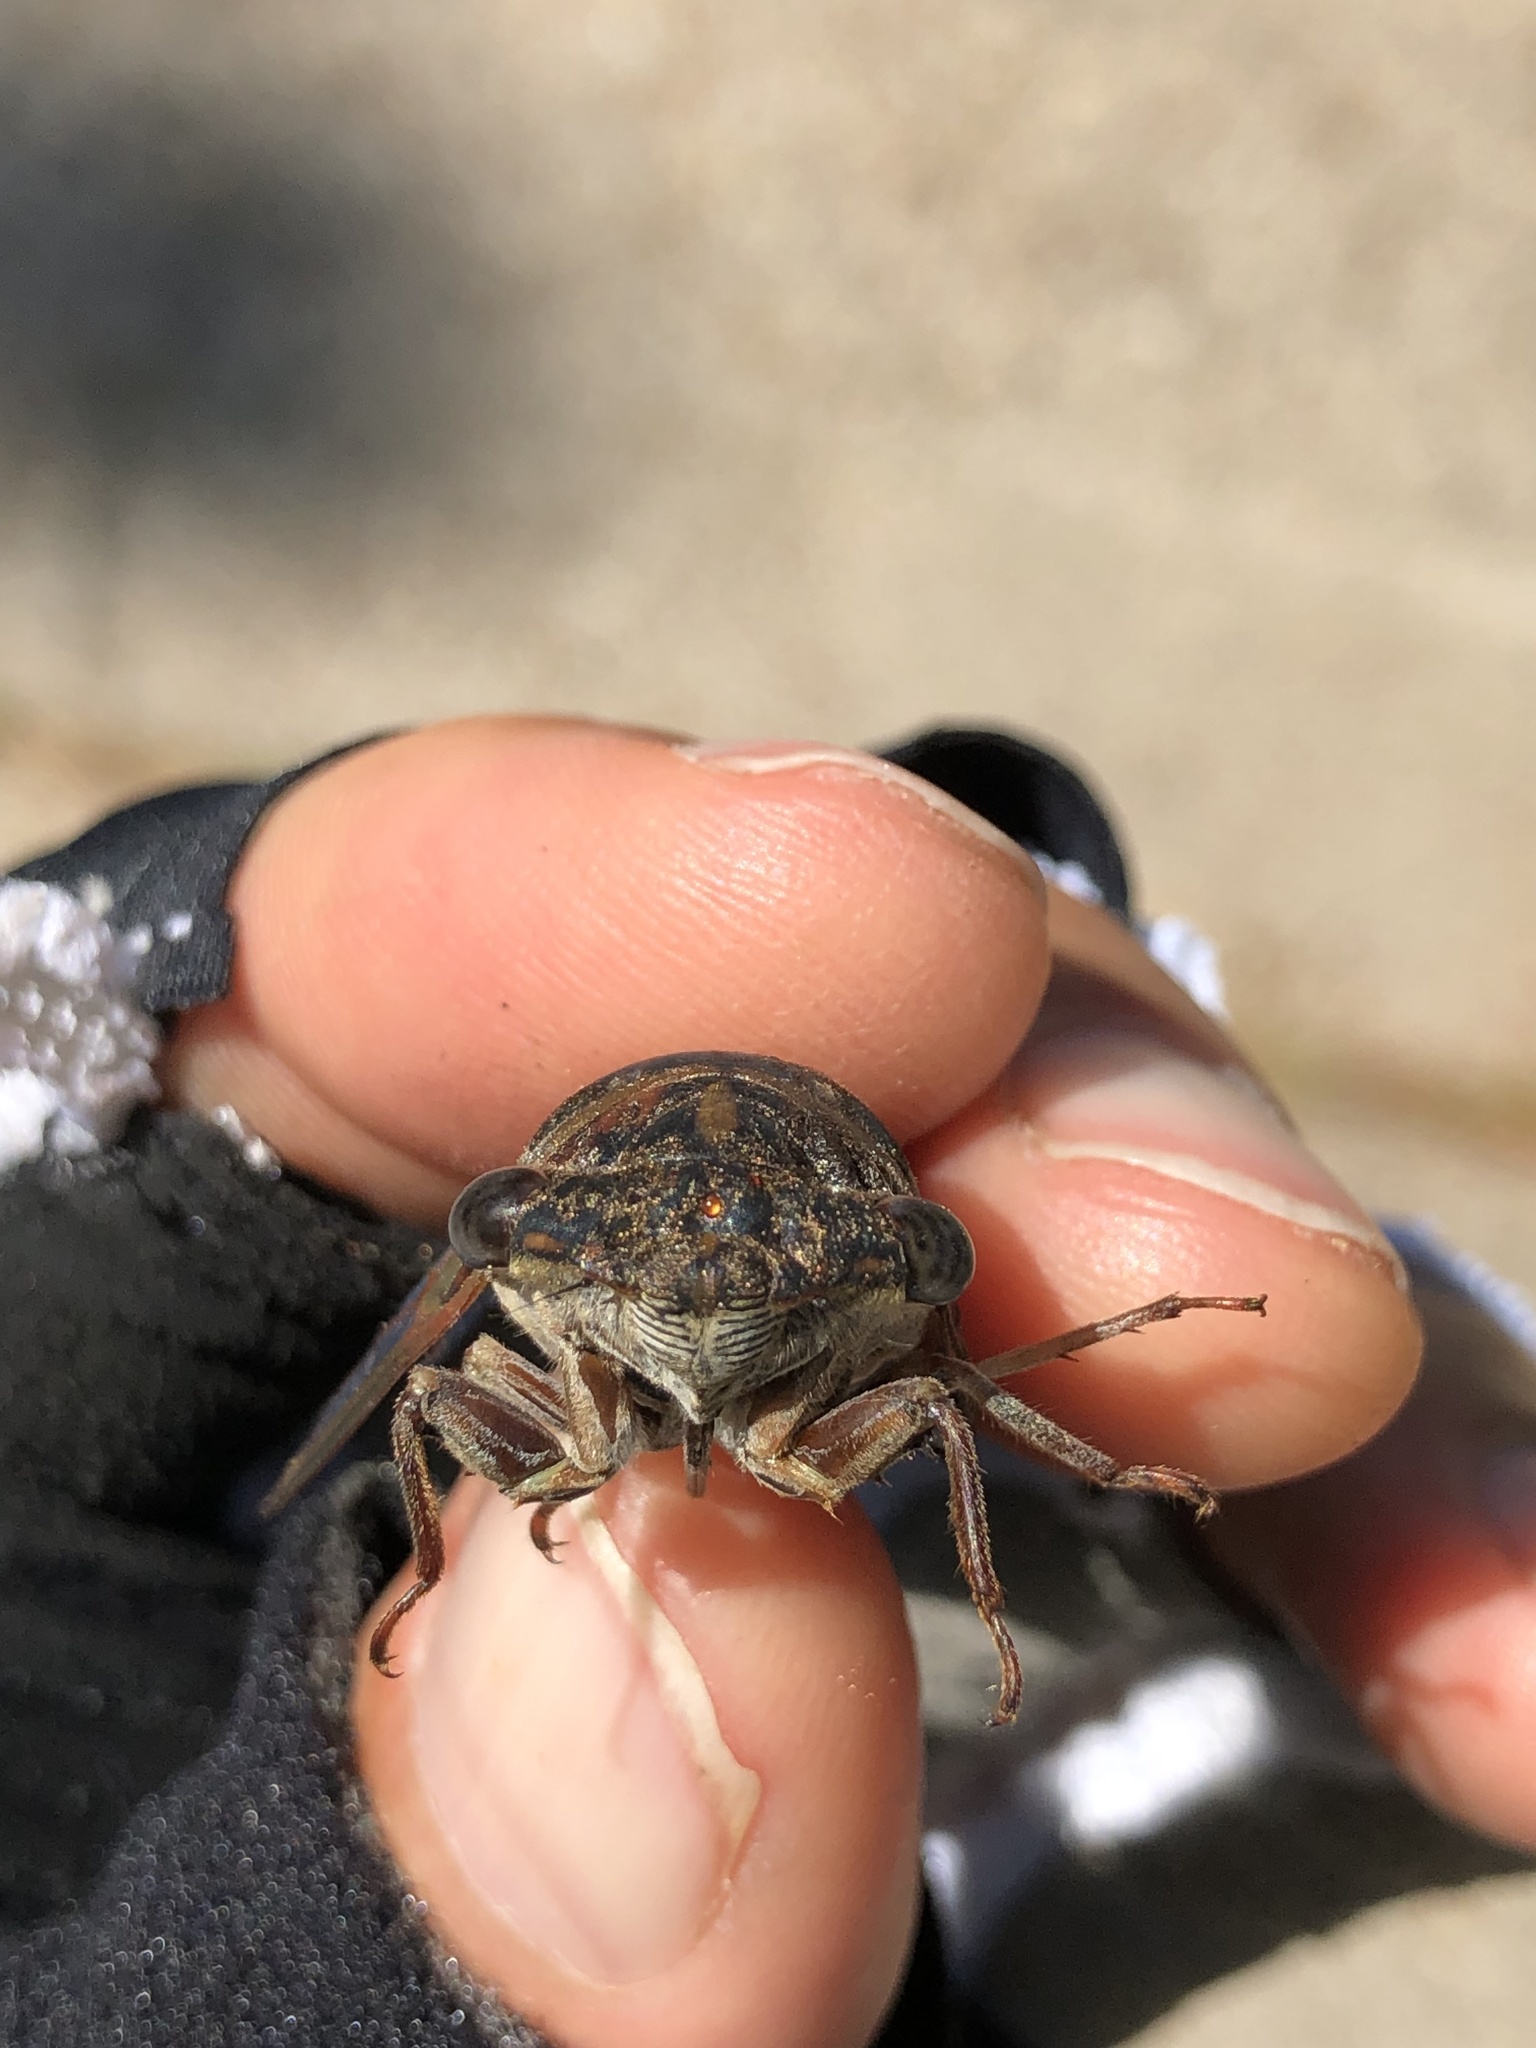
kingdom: Animalia
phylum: Arthropoda
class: Insecta
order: Hemiptera
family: Cicadidae
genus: Neotibicen
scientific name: Neotibicen davisi
